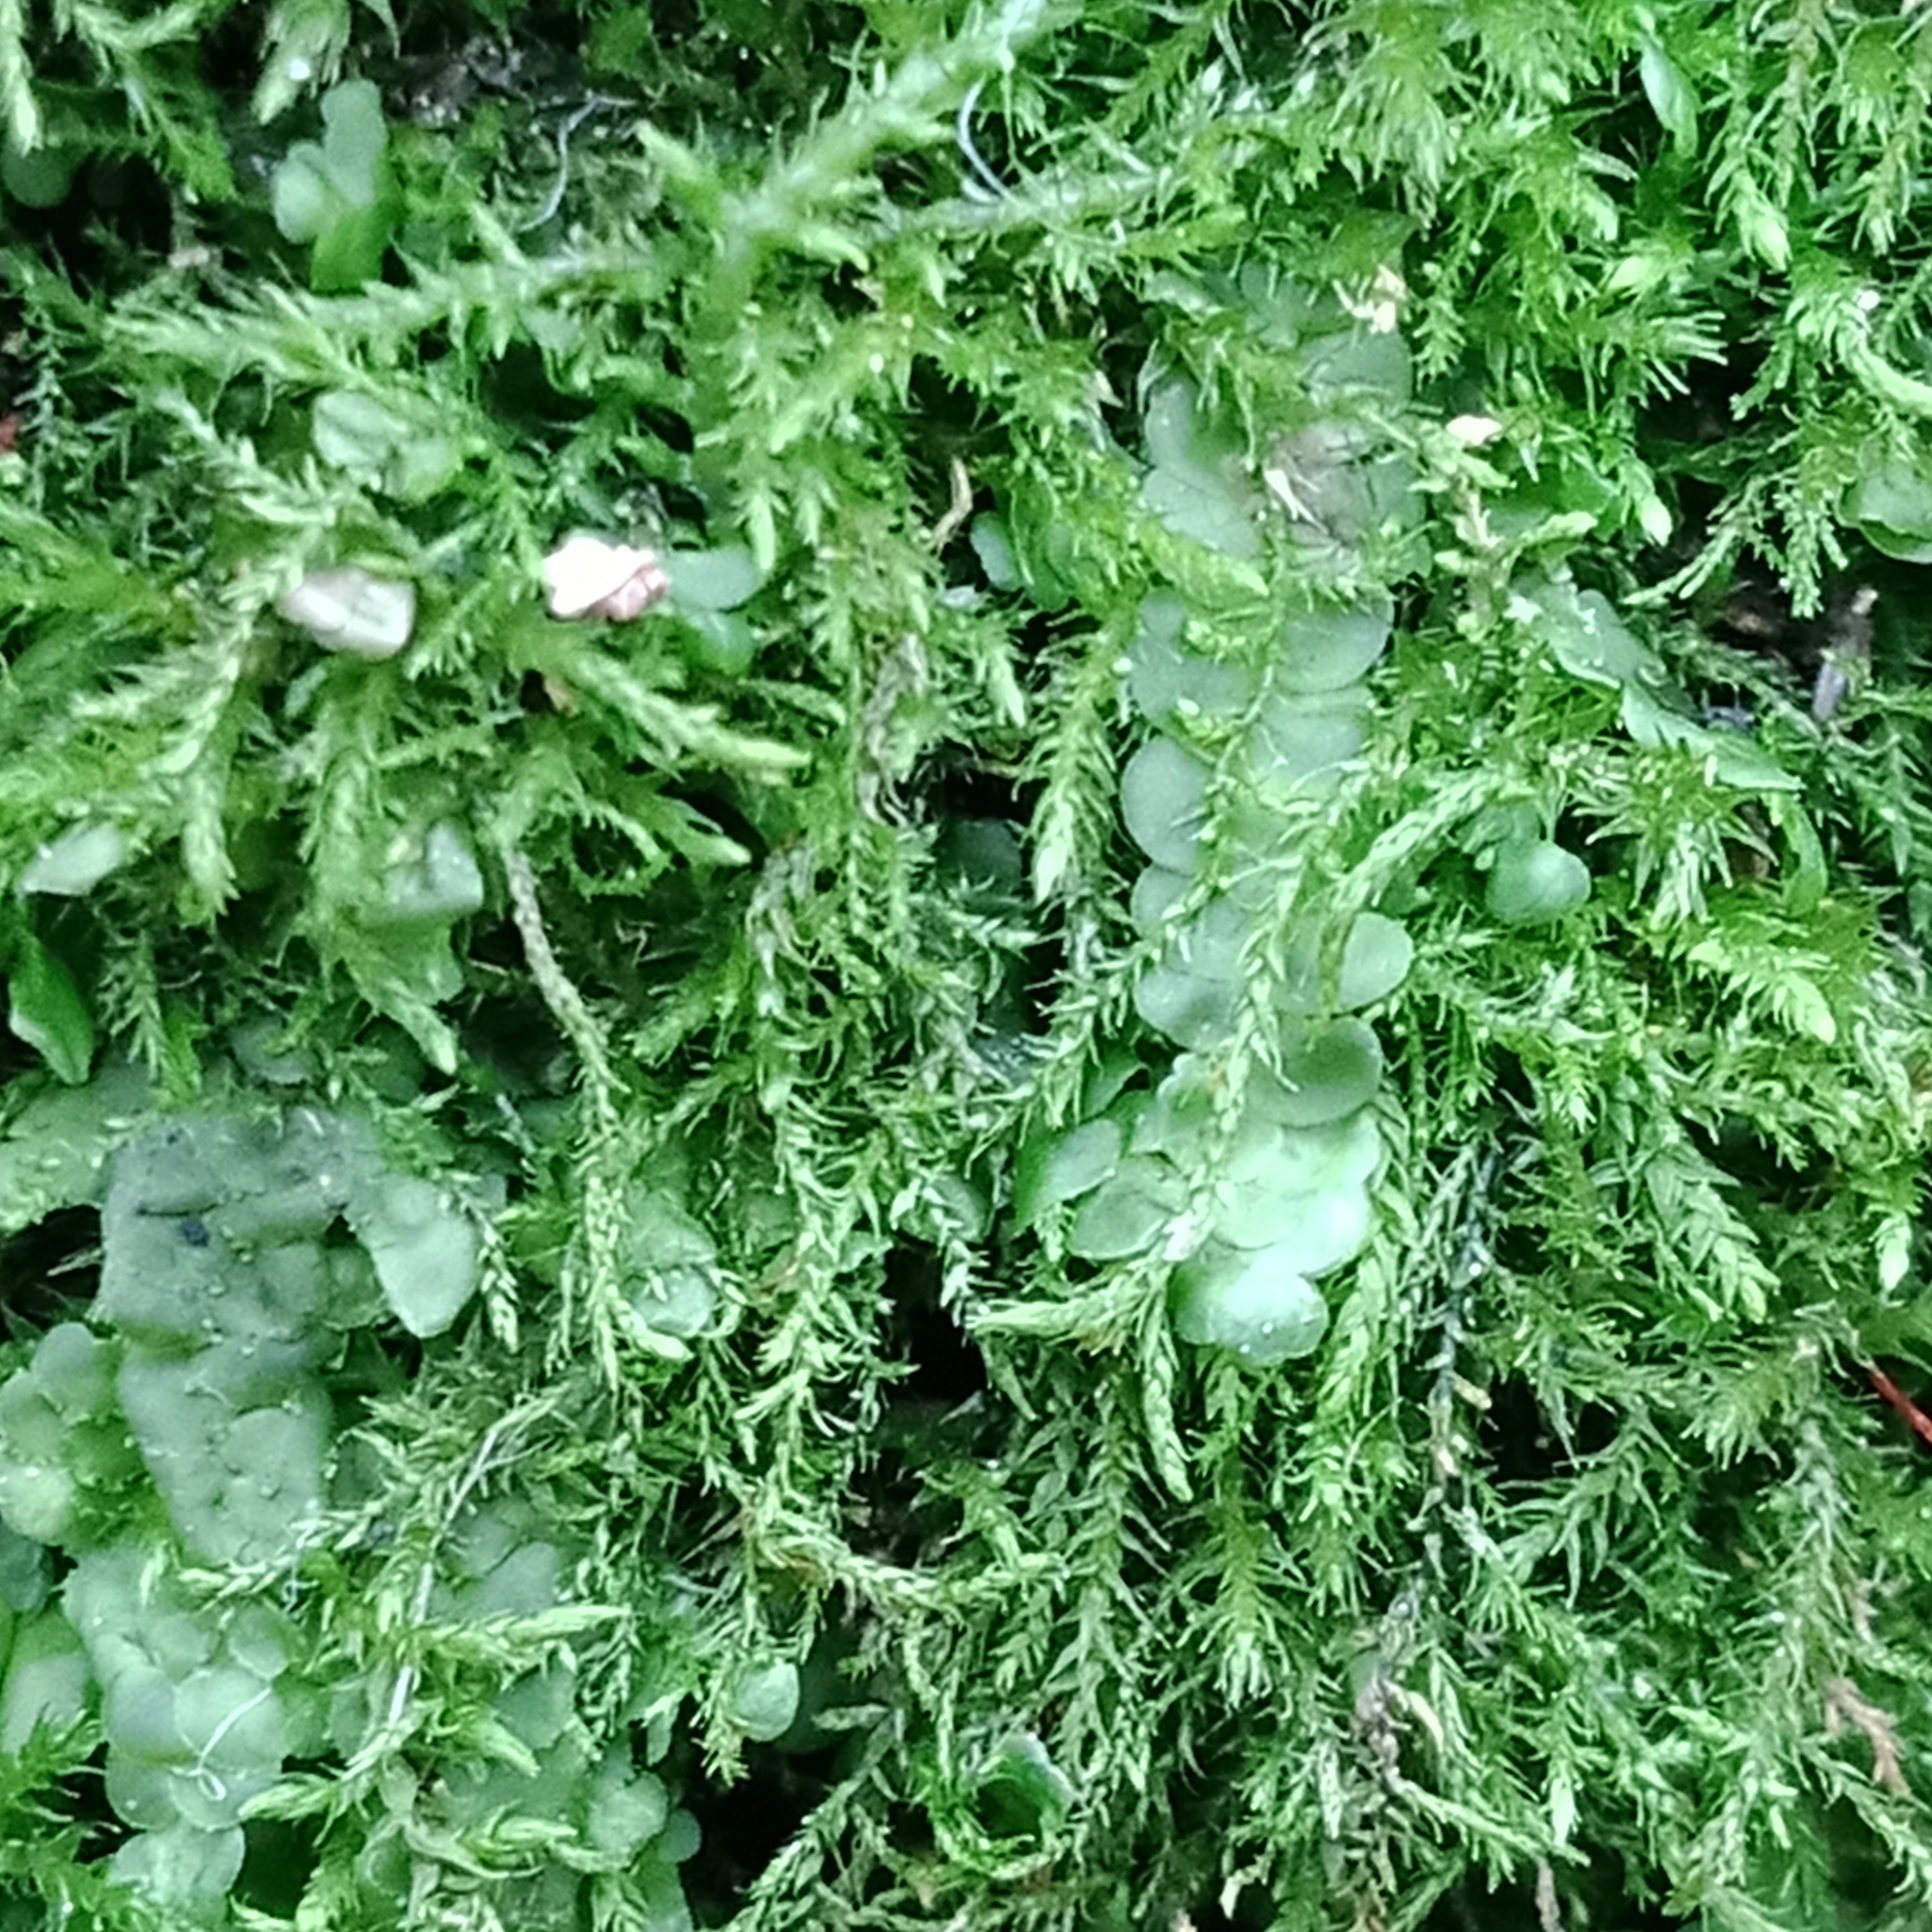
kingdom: Plantae
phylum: Marchantiophyta
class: Jungermanniopsida
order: Porellales
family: Radulaceae
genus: Radula
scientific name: Radula complanata
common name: Flat-leaved scalewort
